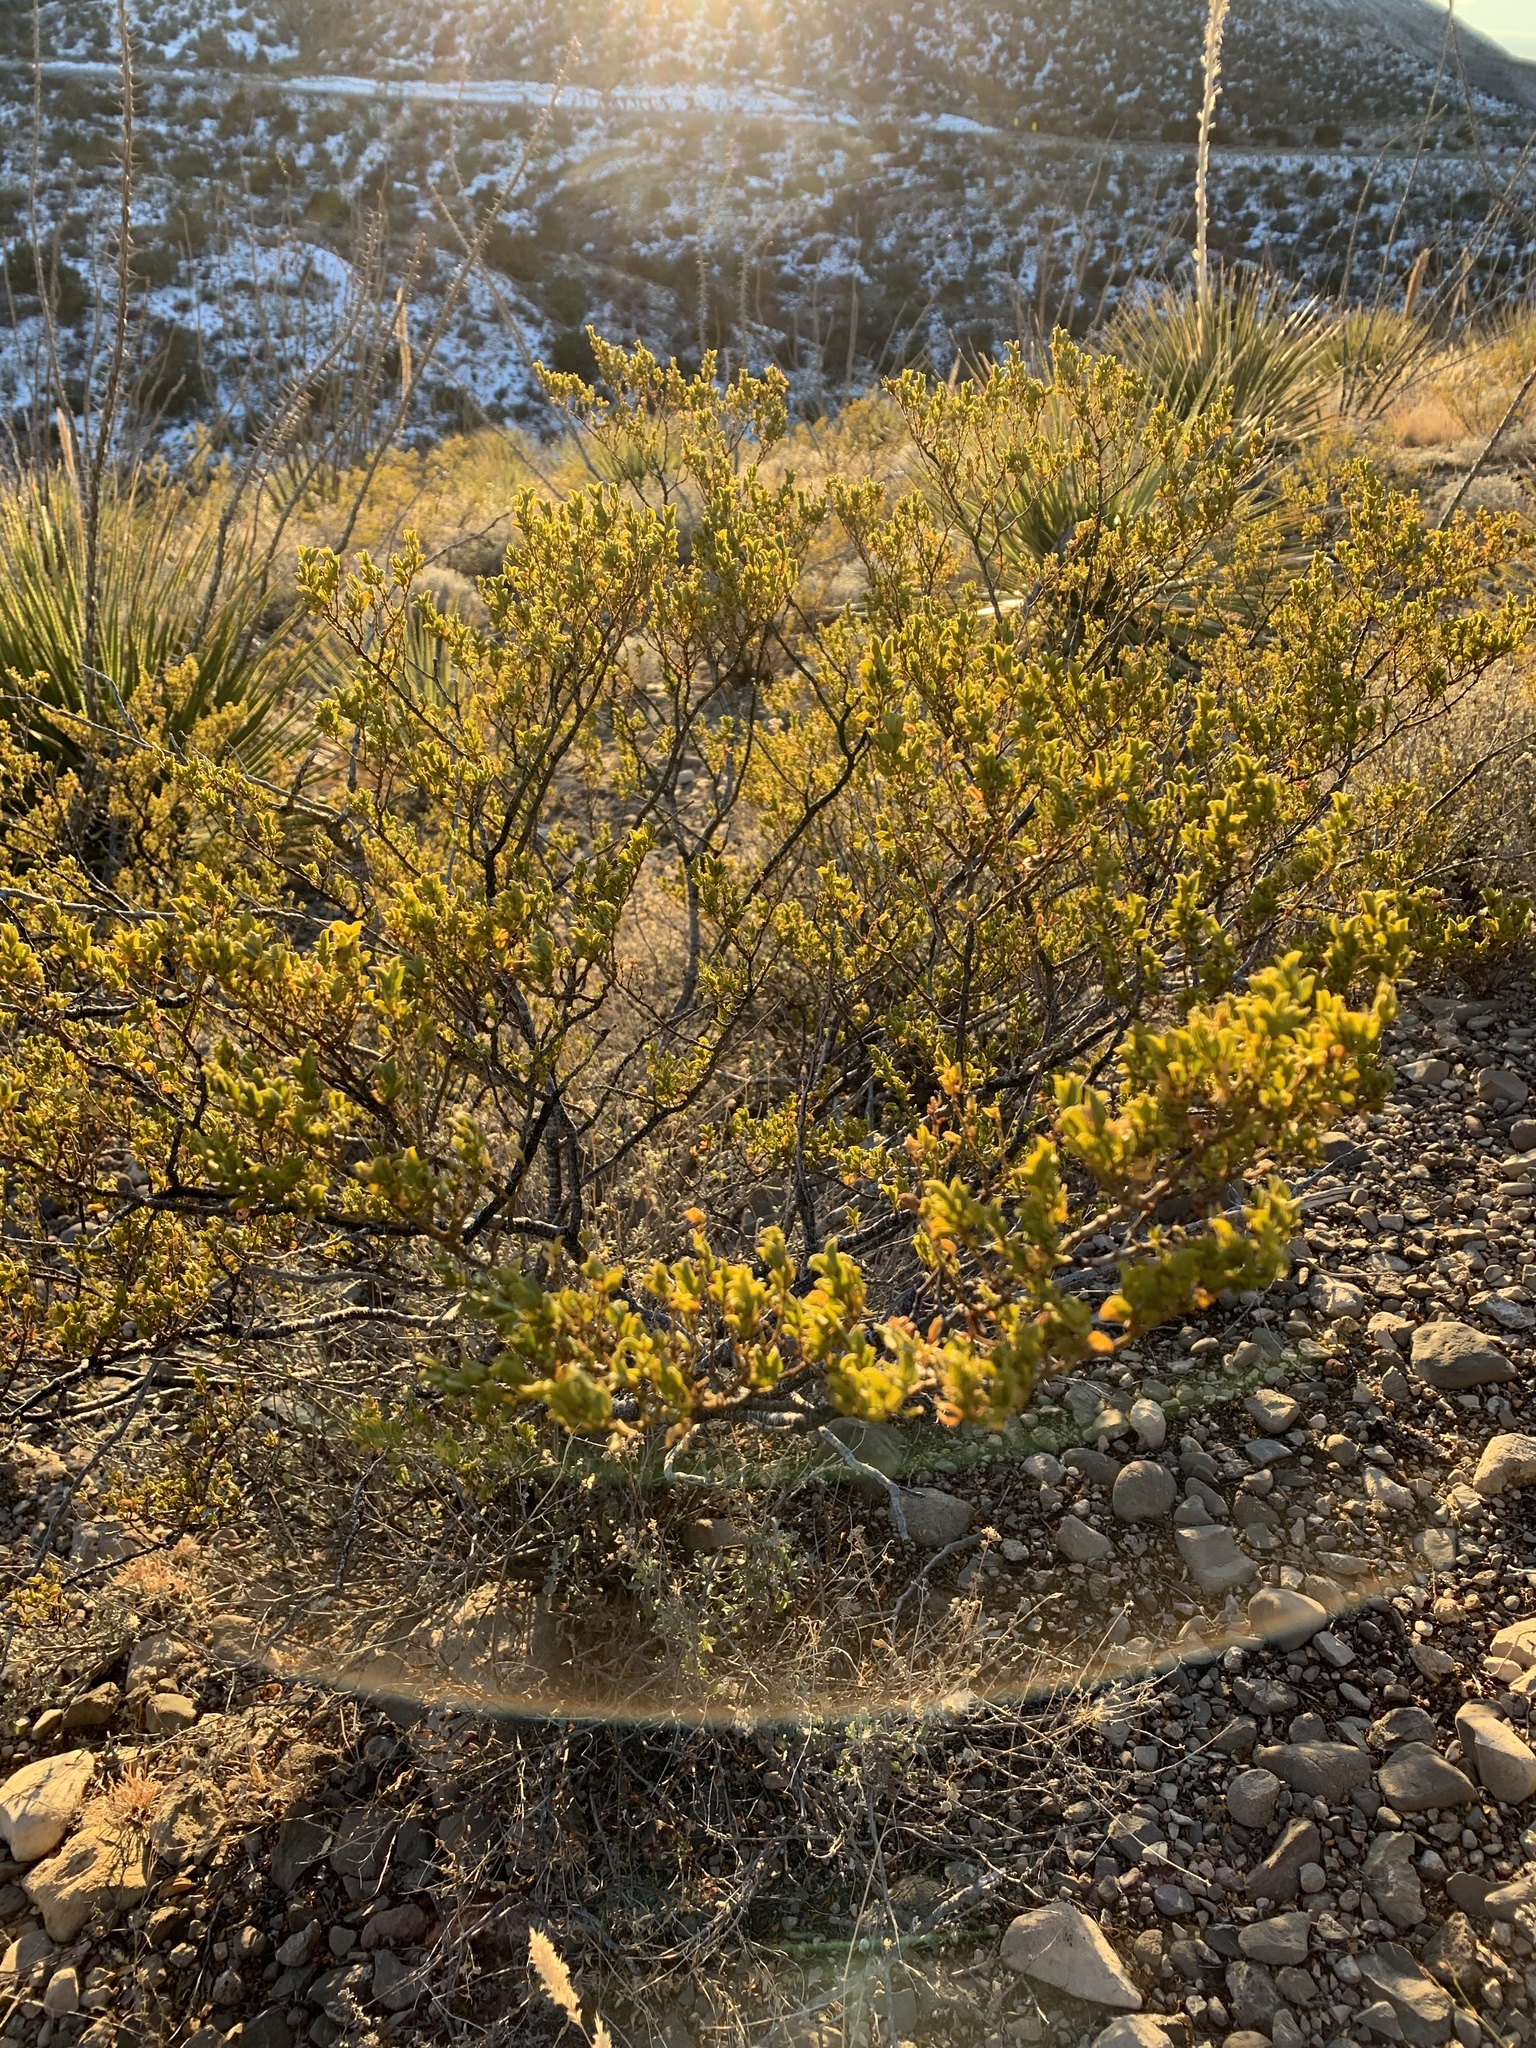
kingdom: Plantae
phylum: Tracheophyta
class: Magnoliopsida
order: Zygophyllales
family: Zygophyllaceae
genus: Larrea
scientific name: Larrea tridentata
